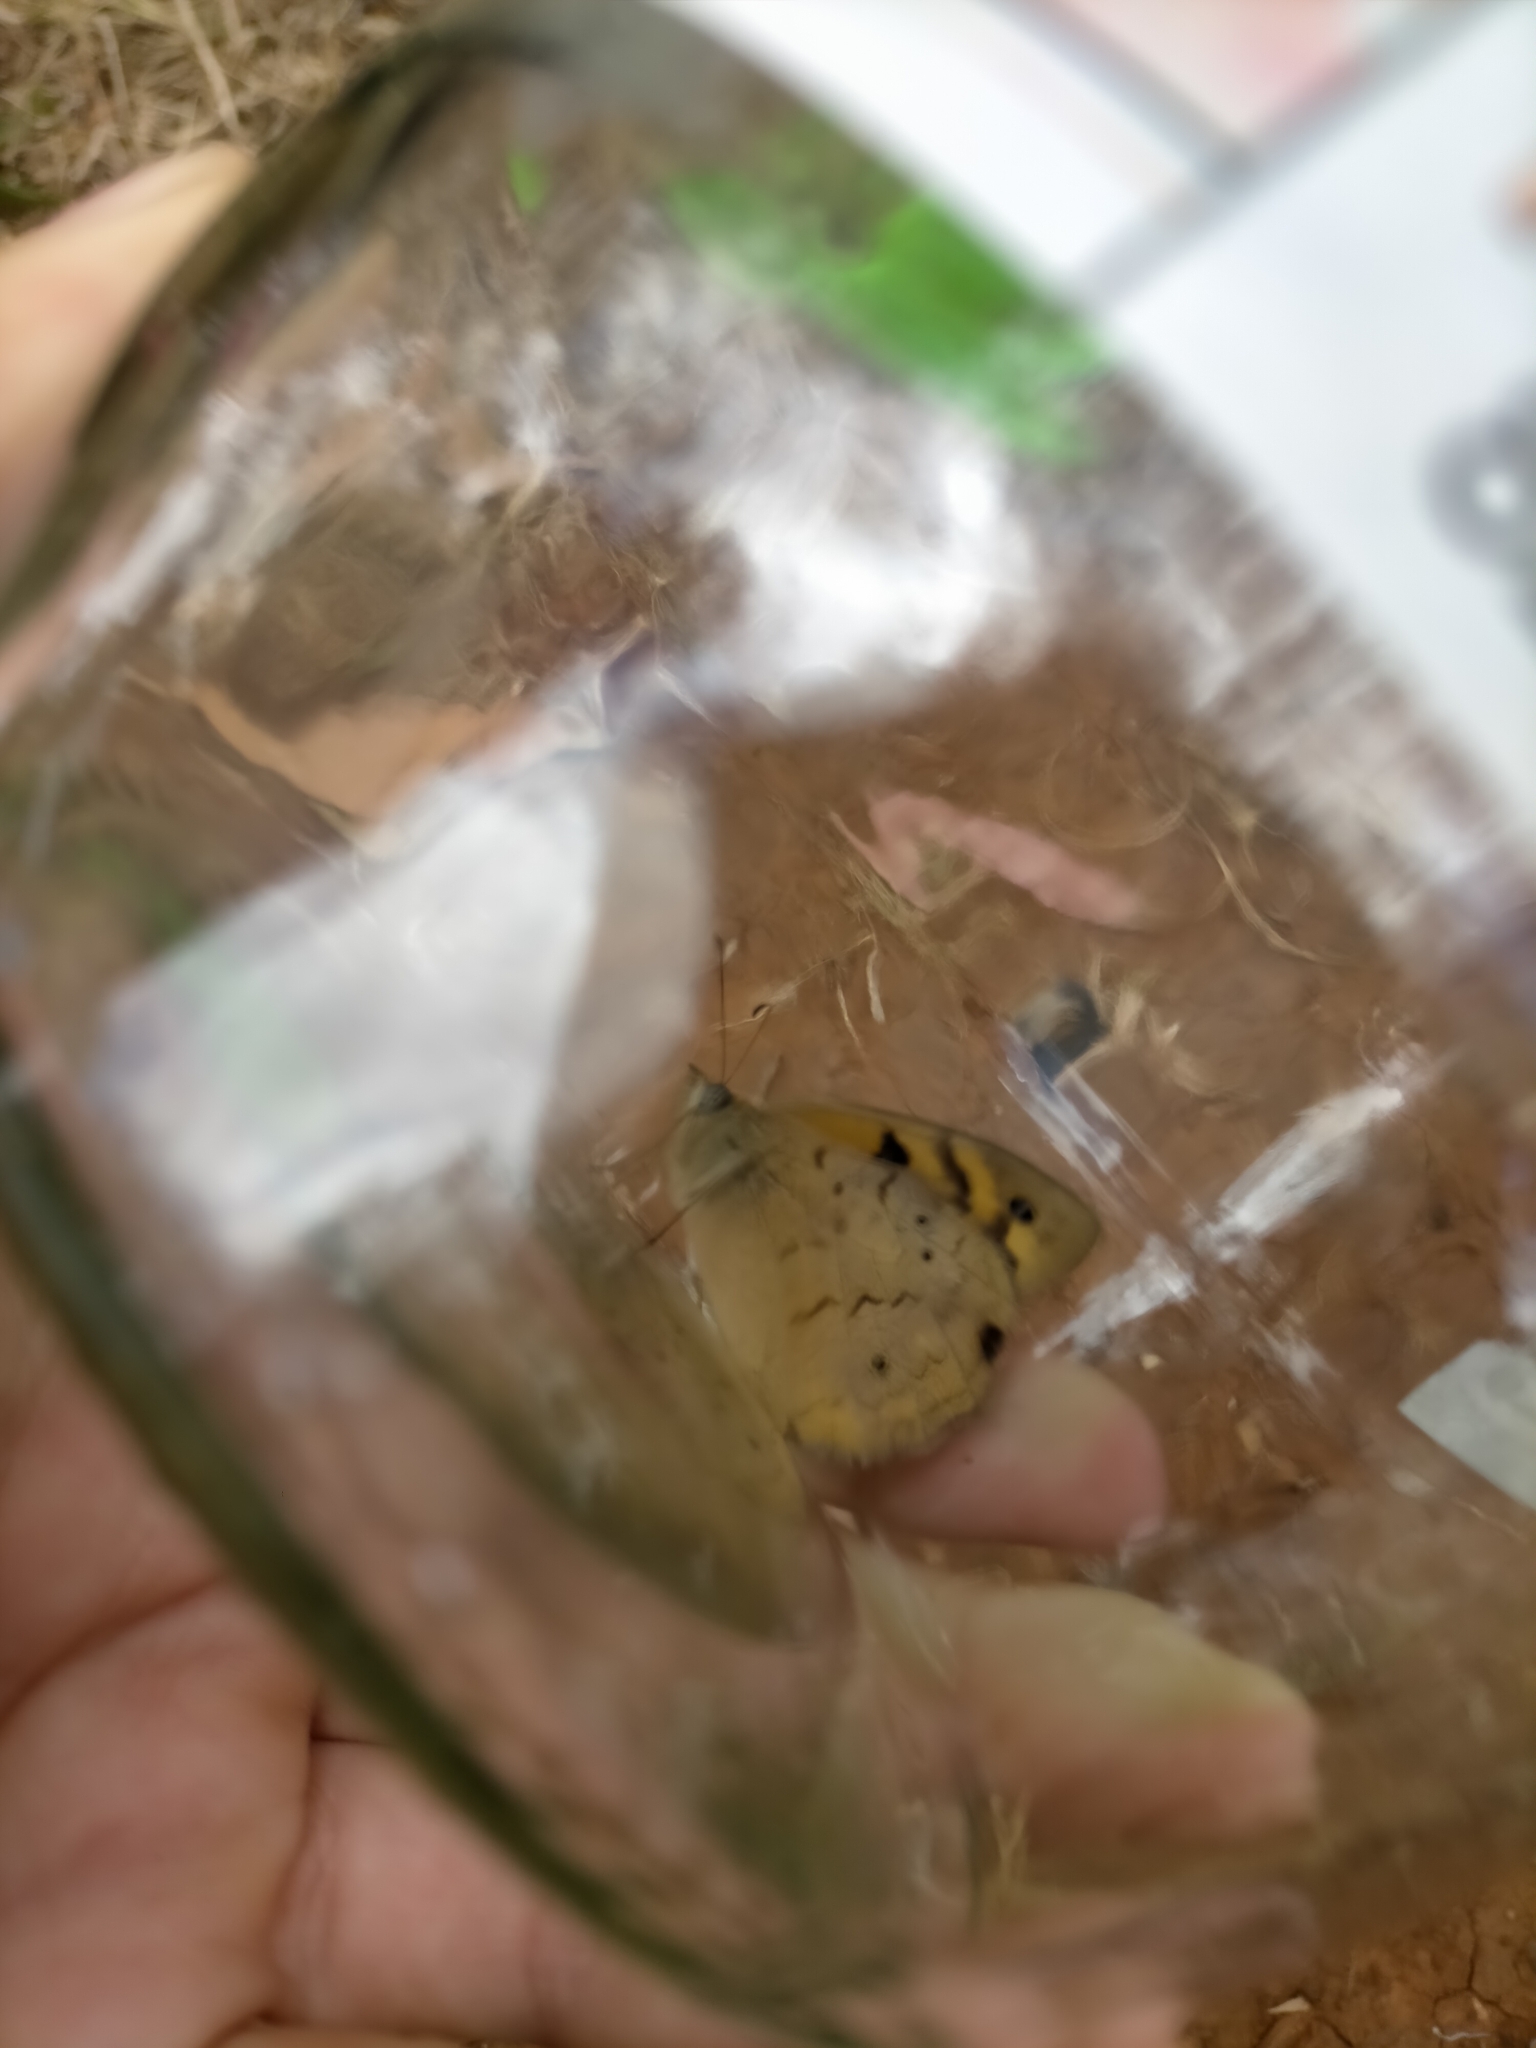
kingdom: Animalia
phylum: Arthropoda
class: Insecta
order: Lepidoptera
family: Nymphalidae
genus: Heteronympha
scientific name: Heteronympha merope
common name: Common brown
